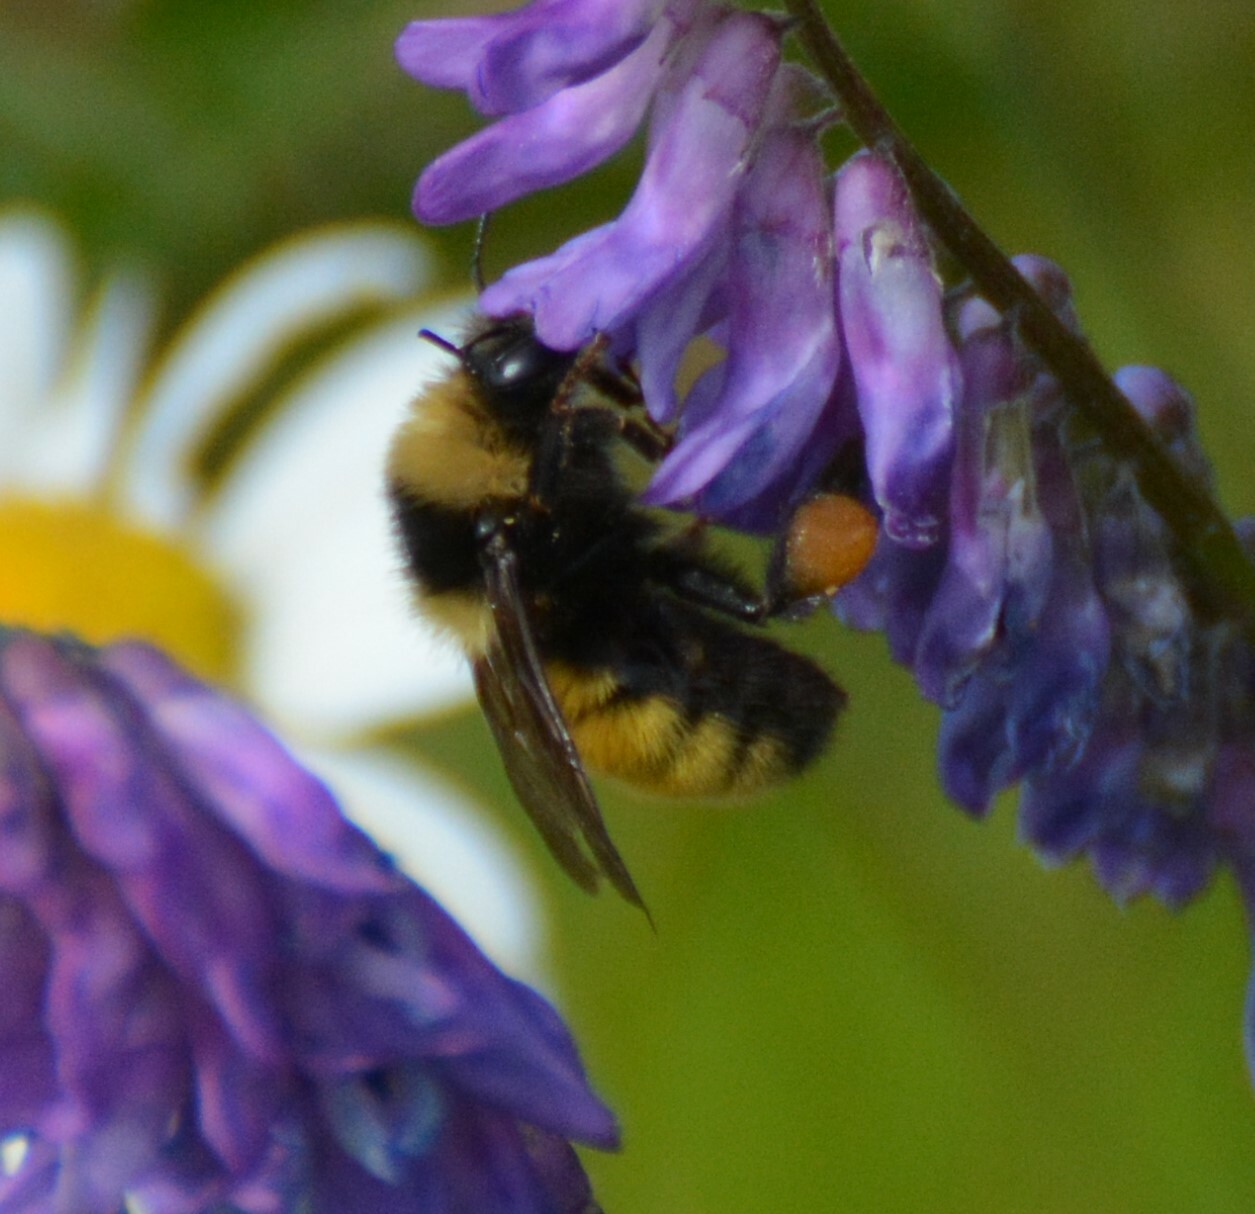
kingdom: Animalia
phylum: Arthropoda
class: Insecta
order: Hymenoptera
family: Apidae
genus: Bombus
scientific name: Bombus borealis
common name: Northern amber bumble bee
